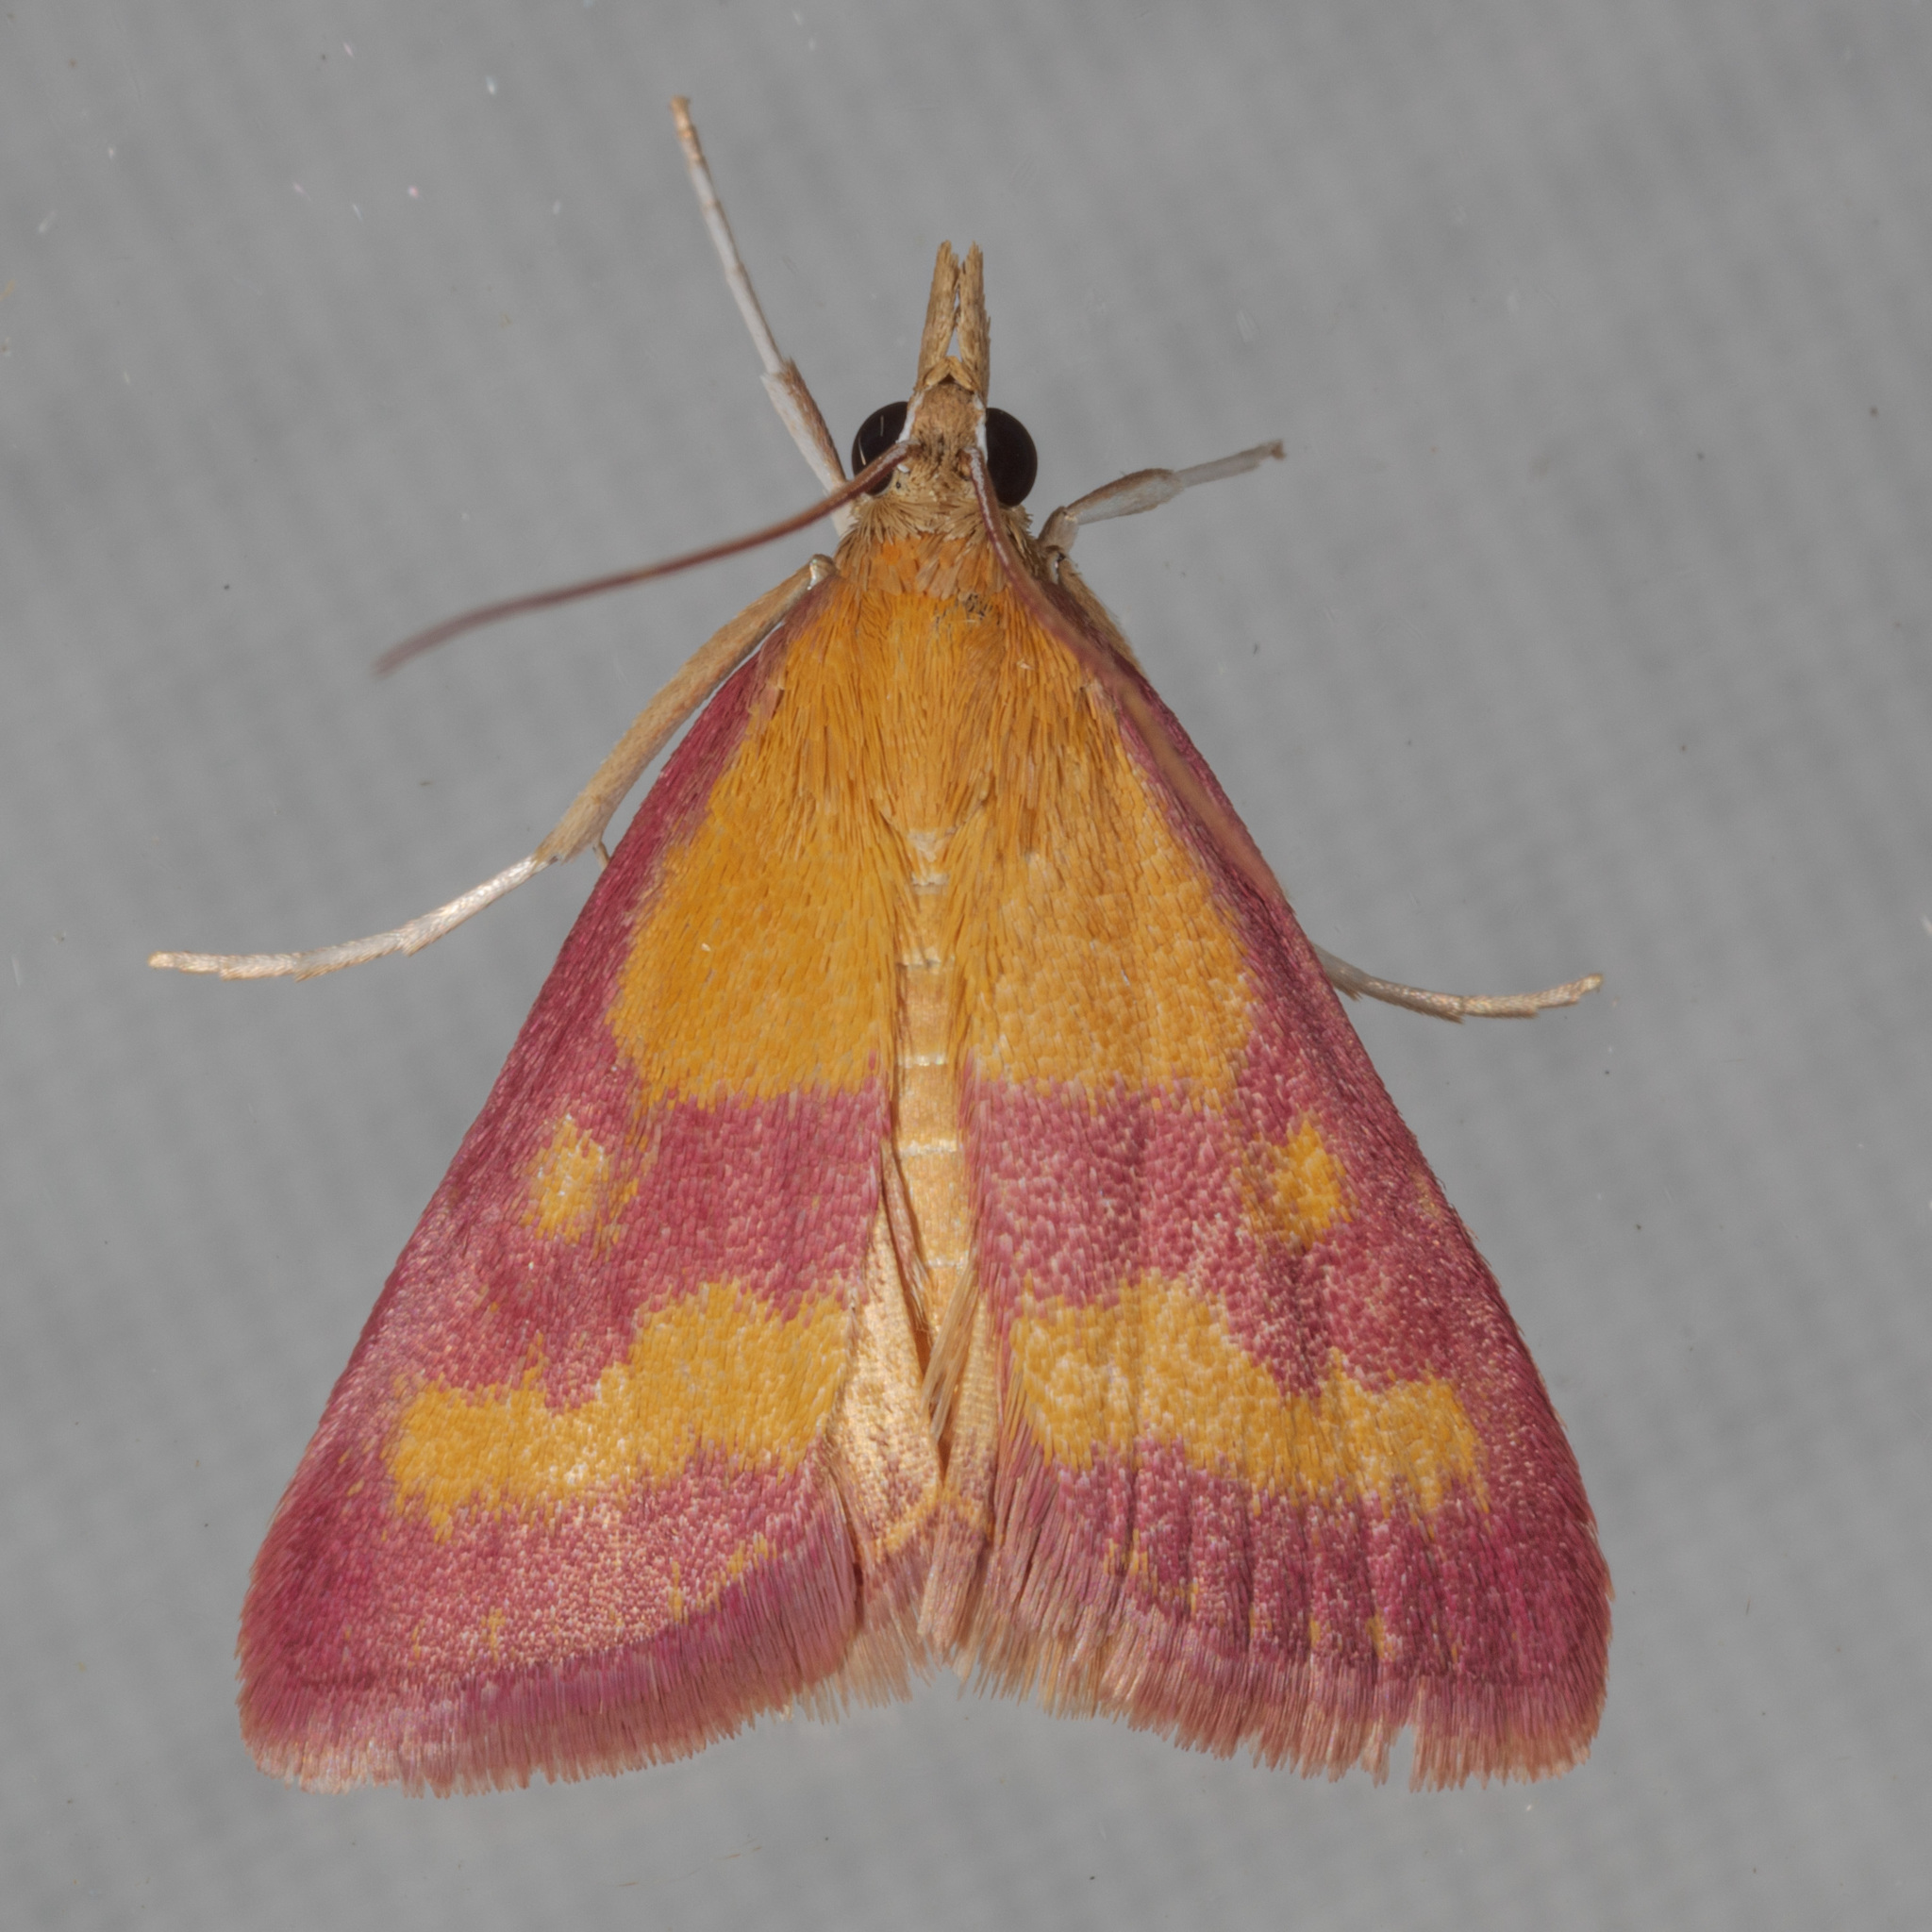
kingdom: Animalia
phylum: Arthropoda
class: Insecta
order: Lepidoptera
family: Crambidae
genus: Pyrausta
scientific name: Pyrausta laticlavia
